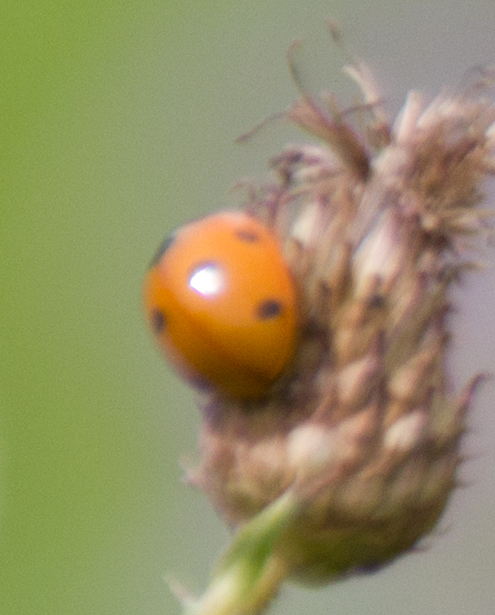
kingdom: Animalia
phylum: Arthropoda
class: Insecta
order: Coleoptera
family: Coccinellidae
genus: Coccinella
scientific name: Coccinella septempunctata
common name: Sevenspotted lady beetle
